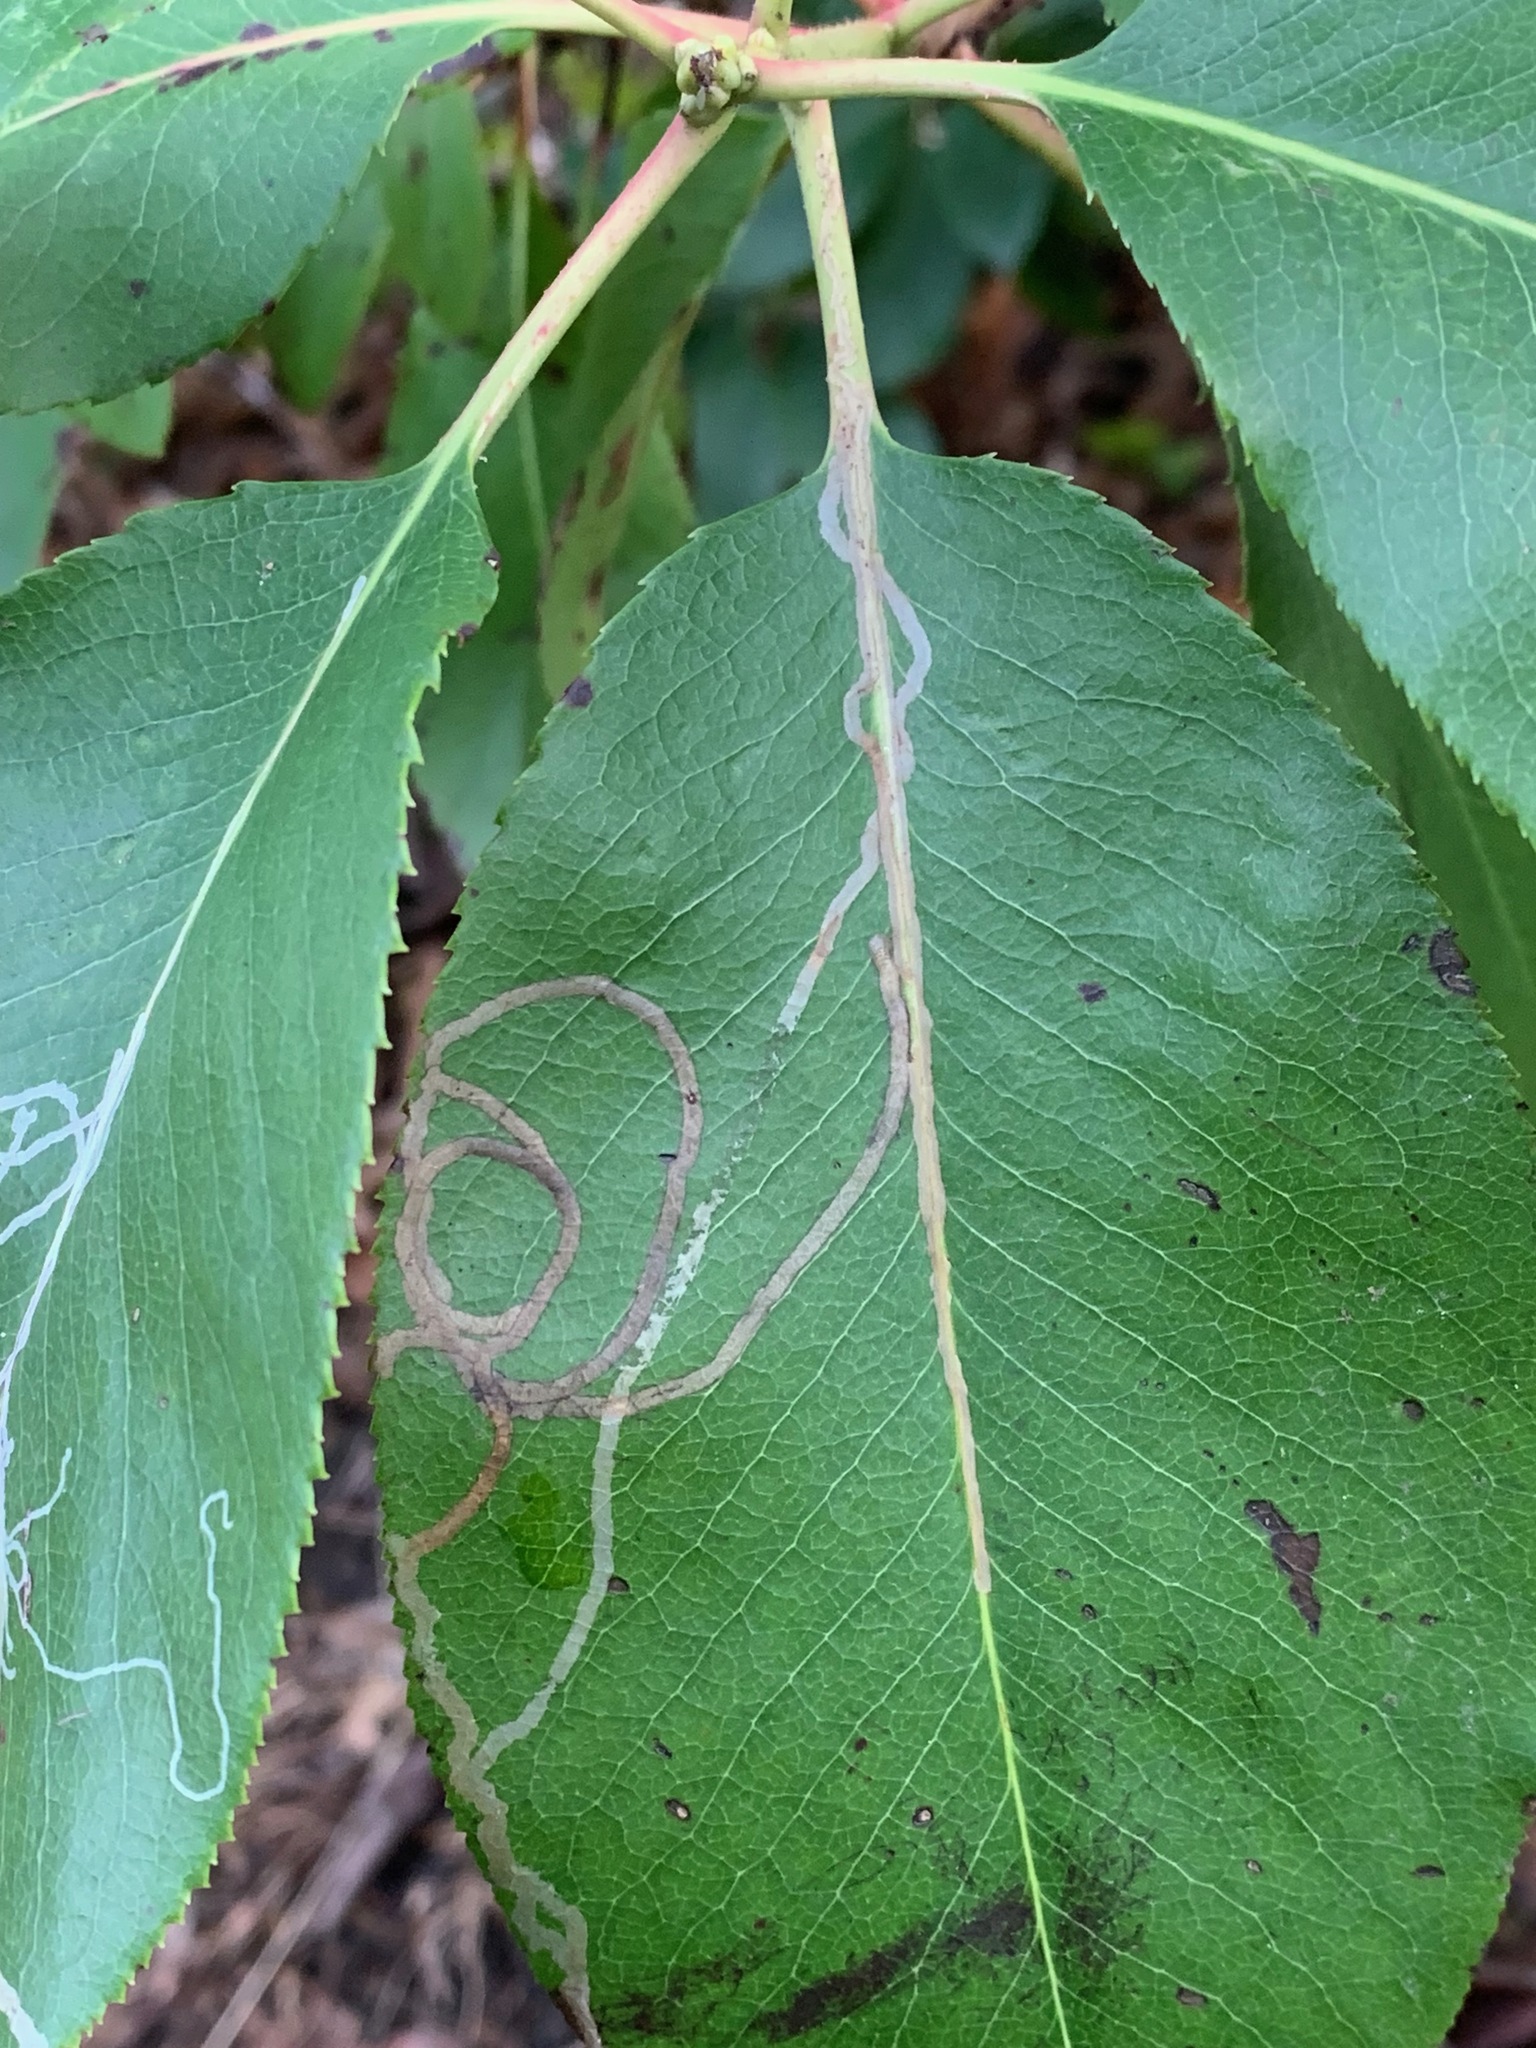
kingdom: Animalia
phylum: Arthropoda
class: Insecta
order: Lepidoptera
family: Gracillariidae
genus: Marmara
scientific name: Marmara arbutiella
